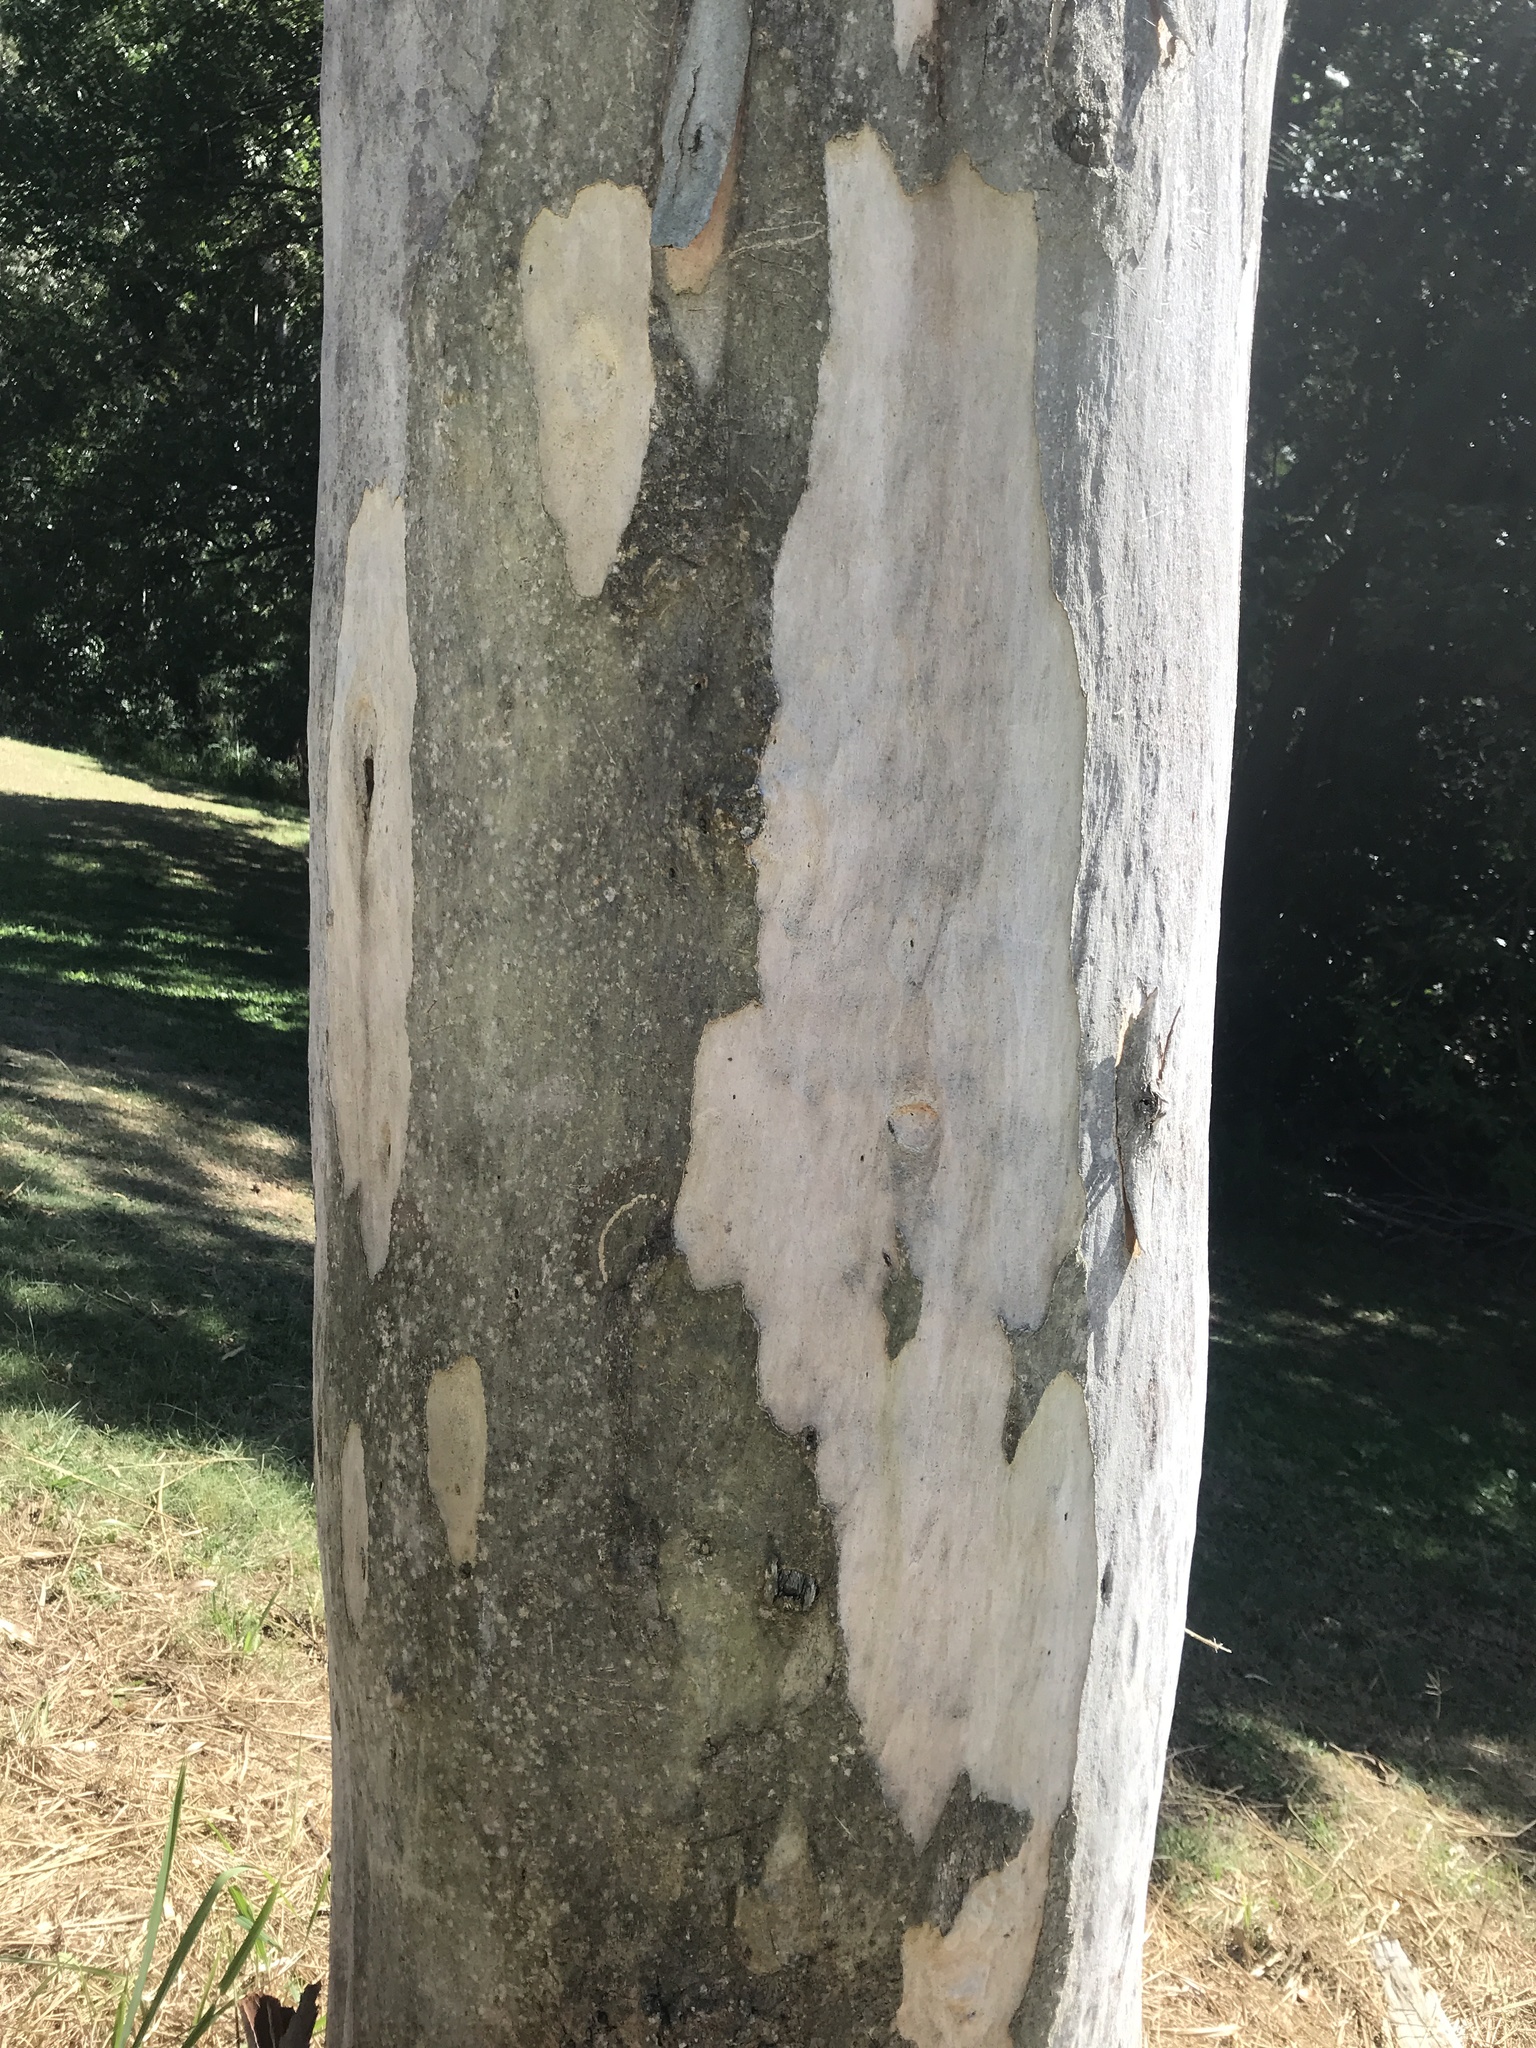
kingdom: Plantae
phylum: Tracheophyta
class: Magnoliopsida
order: Myrtales
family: Myrtaceae
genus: Eucalyptus
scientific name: Eucalyptus propinqua
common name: Grey-gum
